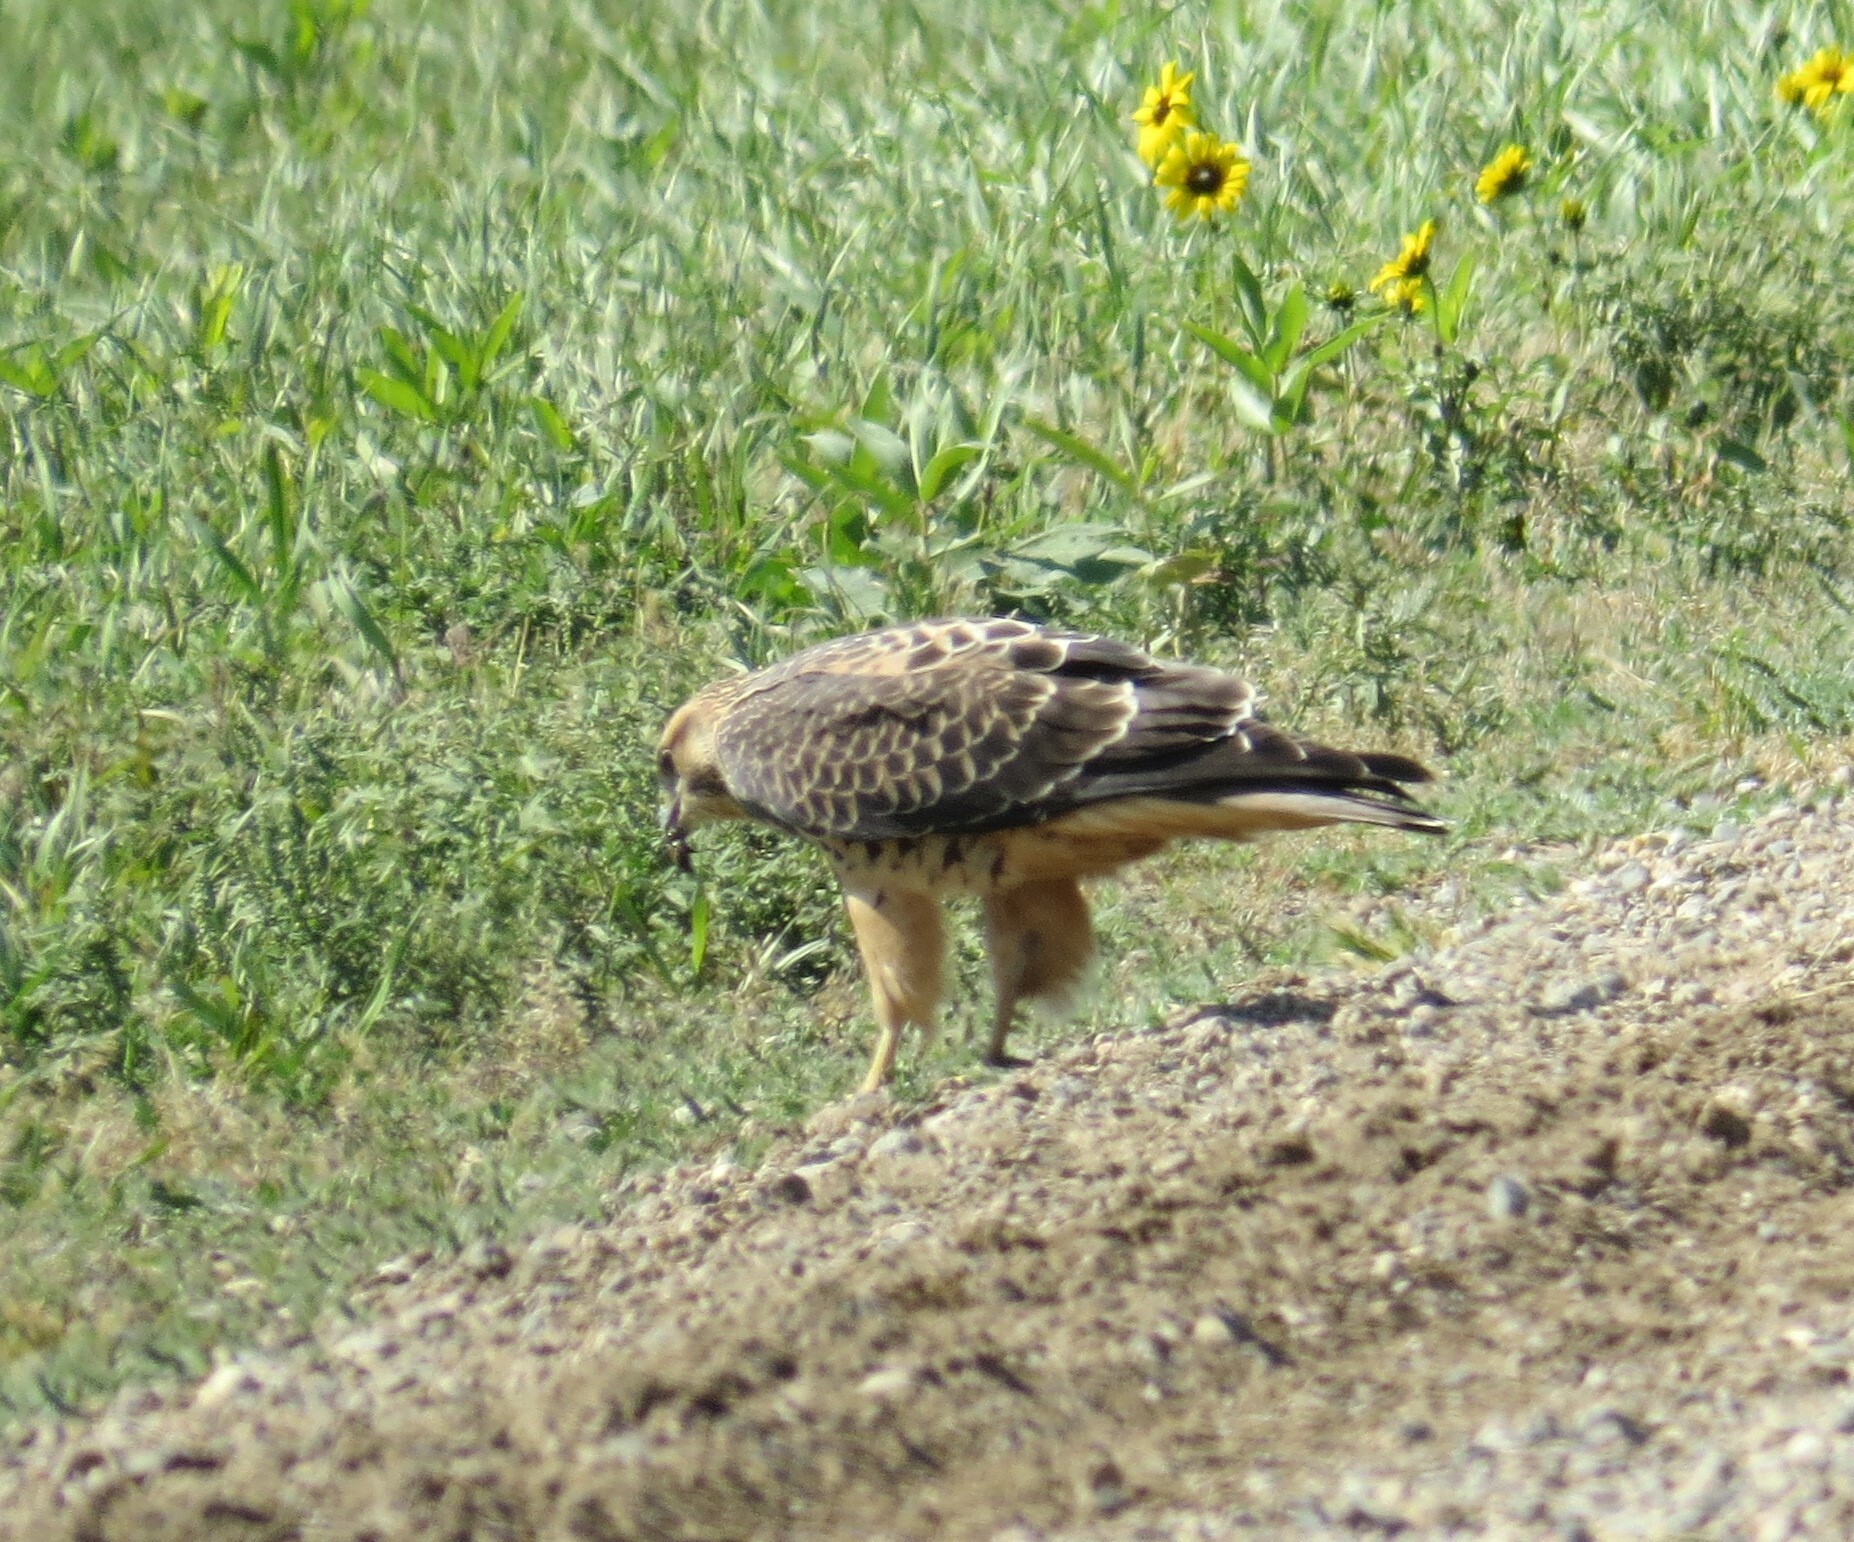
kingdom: Animalia
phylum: Chordata
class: Aves
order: Accipitriformes
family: Accipitridae
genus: Buteo
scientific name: Buteo swainsoni
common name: Swainson's hawk
